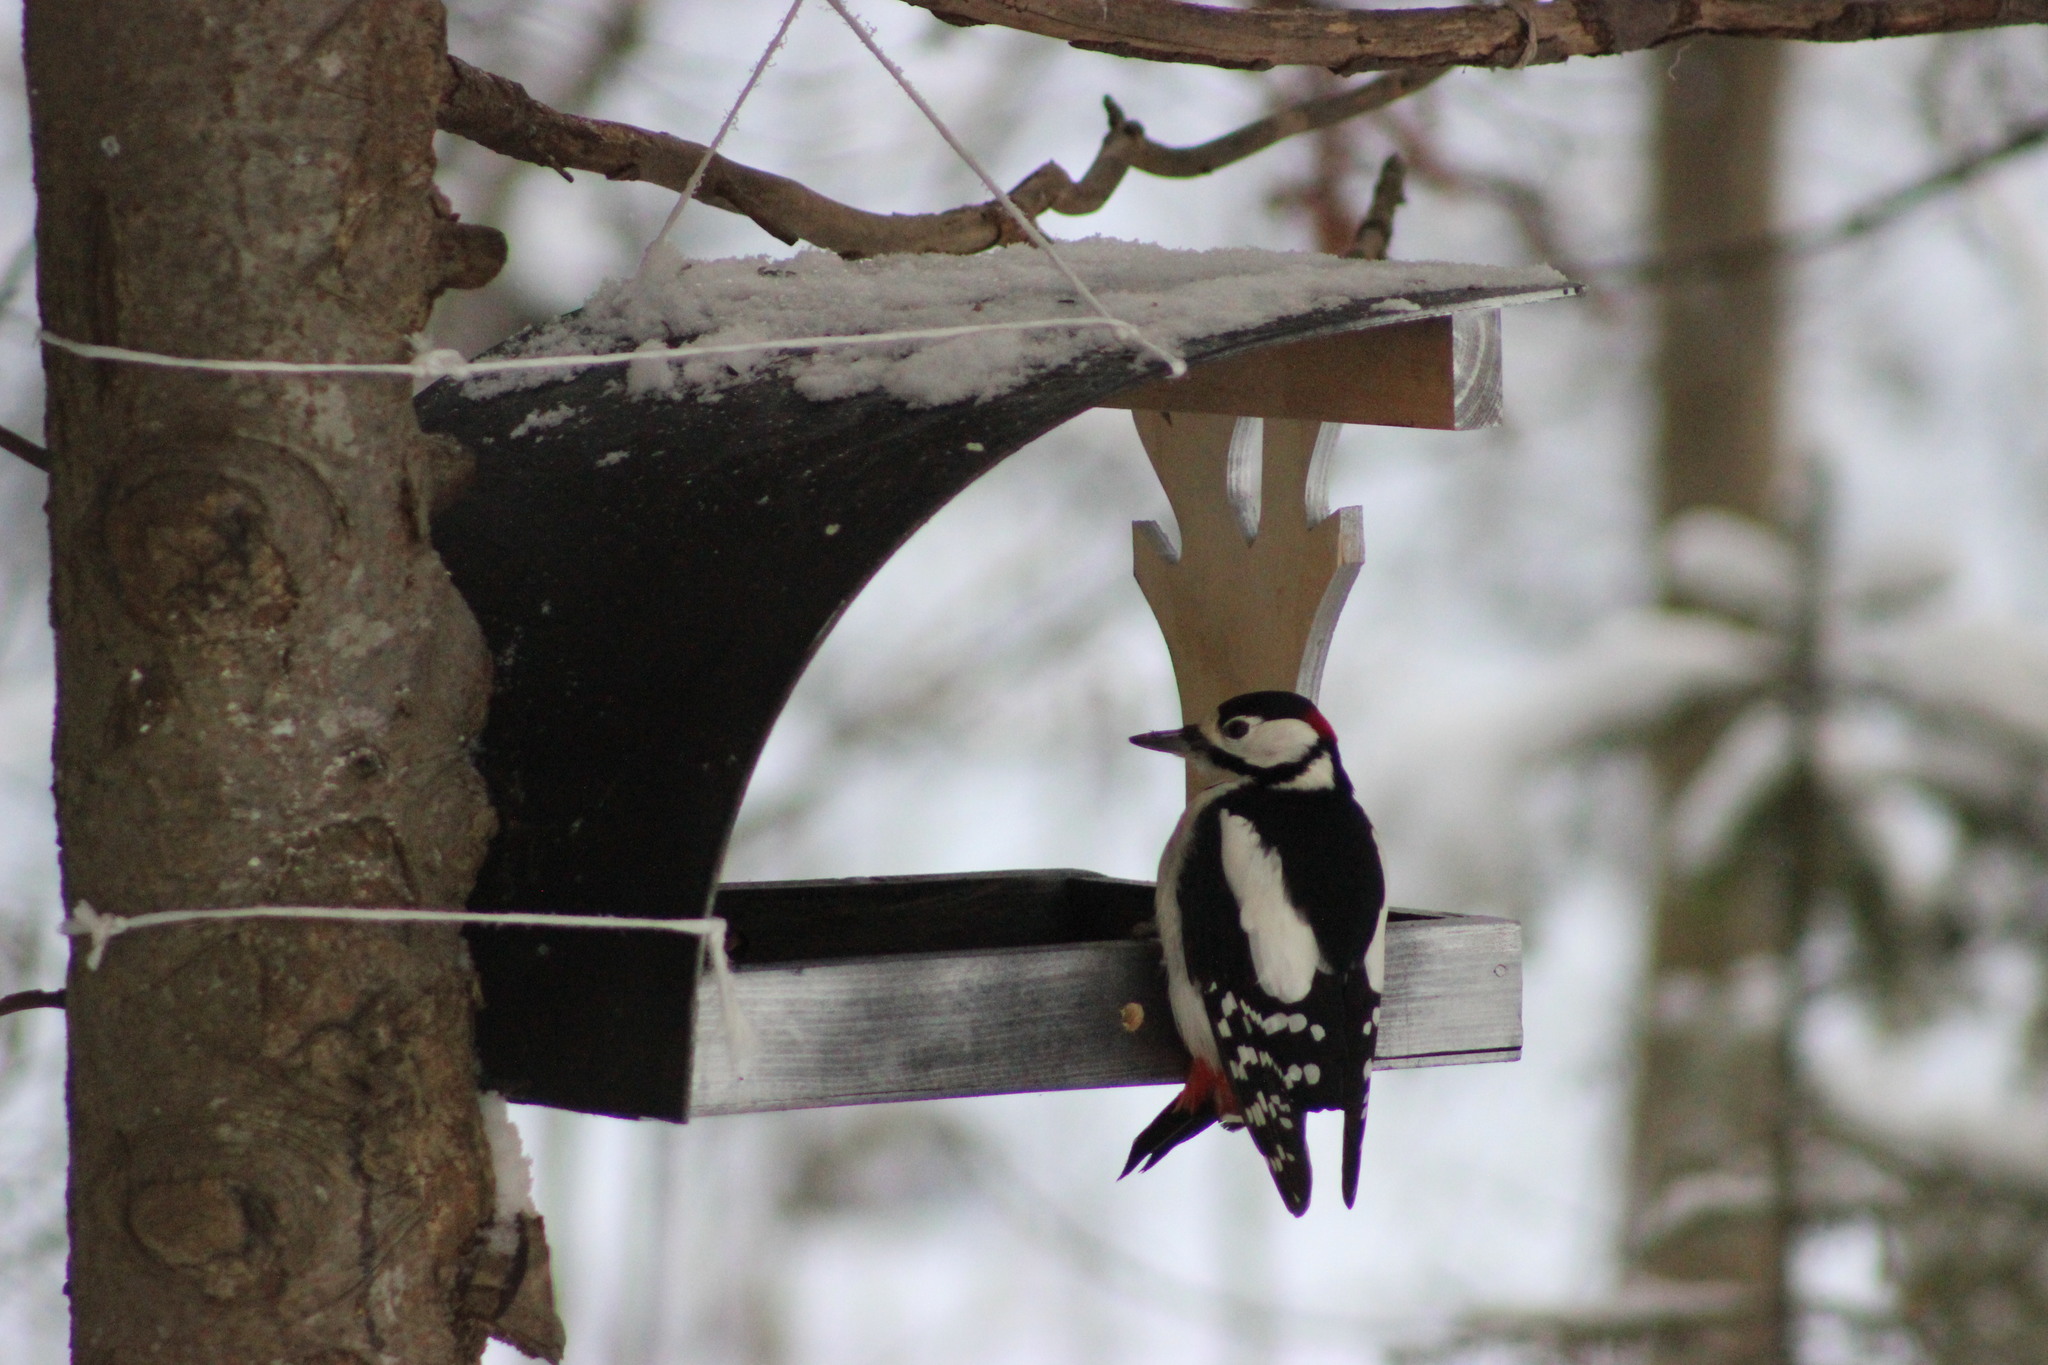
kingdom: Animalia
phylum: Chordata
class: Aves
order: Piciformes
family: Picidae
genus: Dendrocopos
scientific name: Dendrocopos major
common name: Great spotted woodpecker
